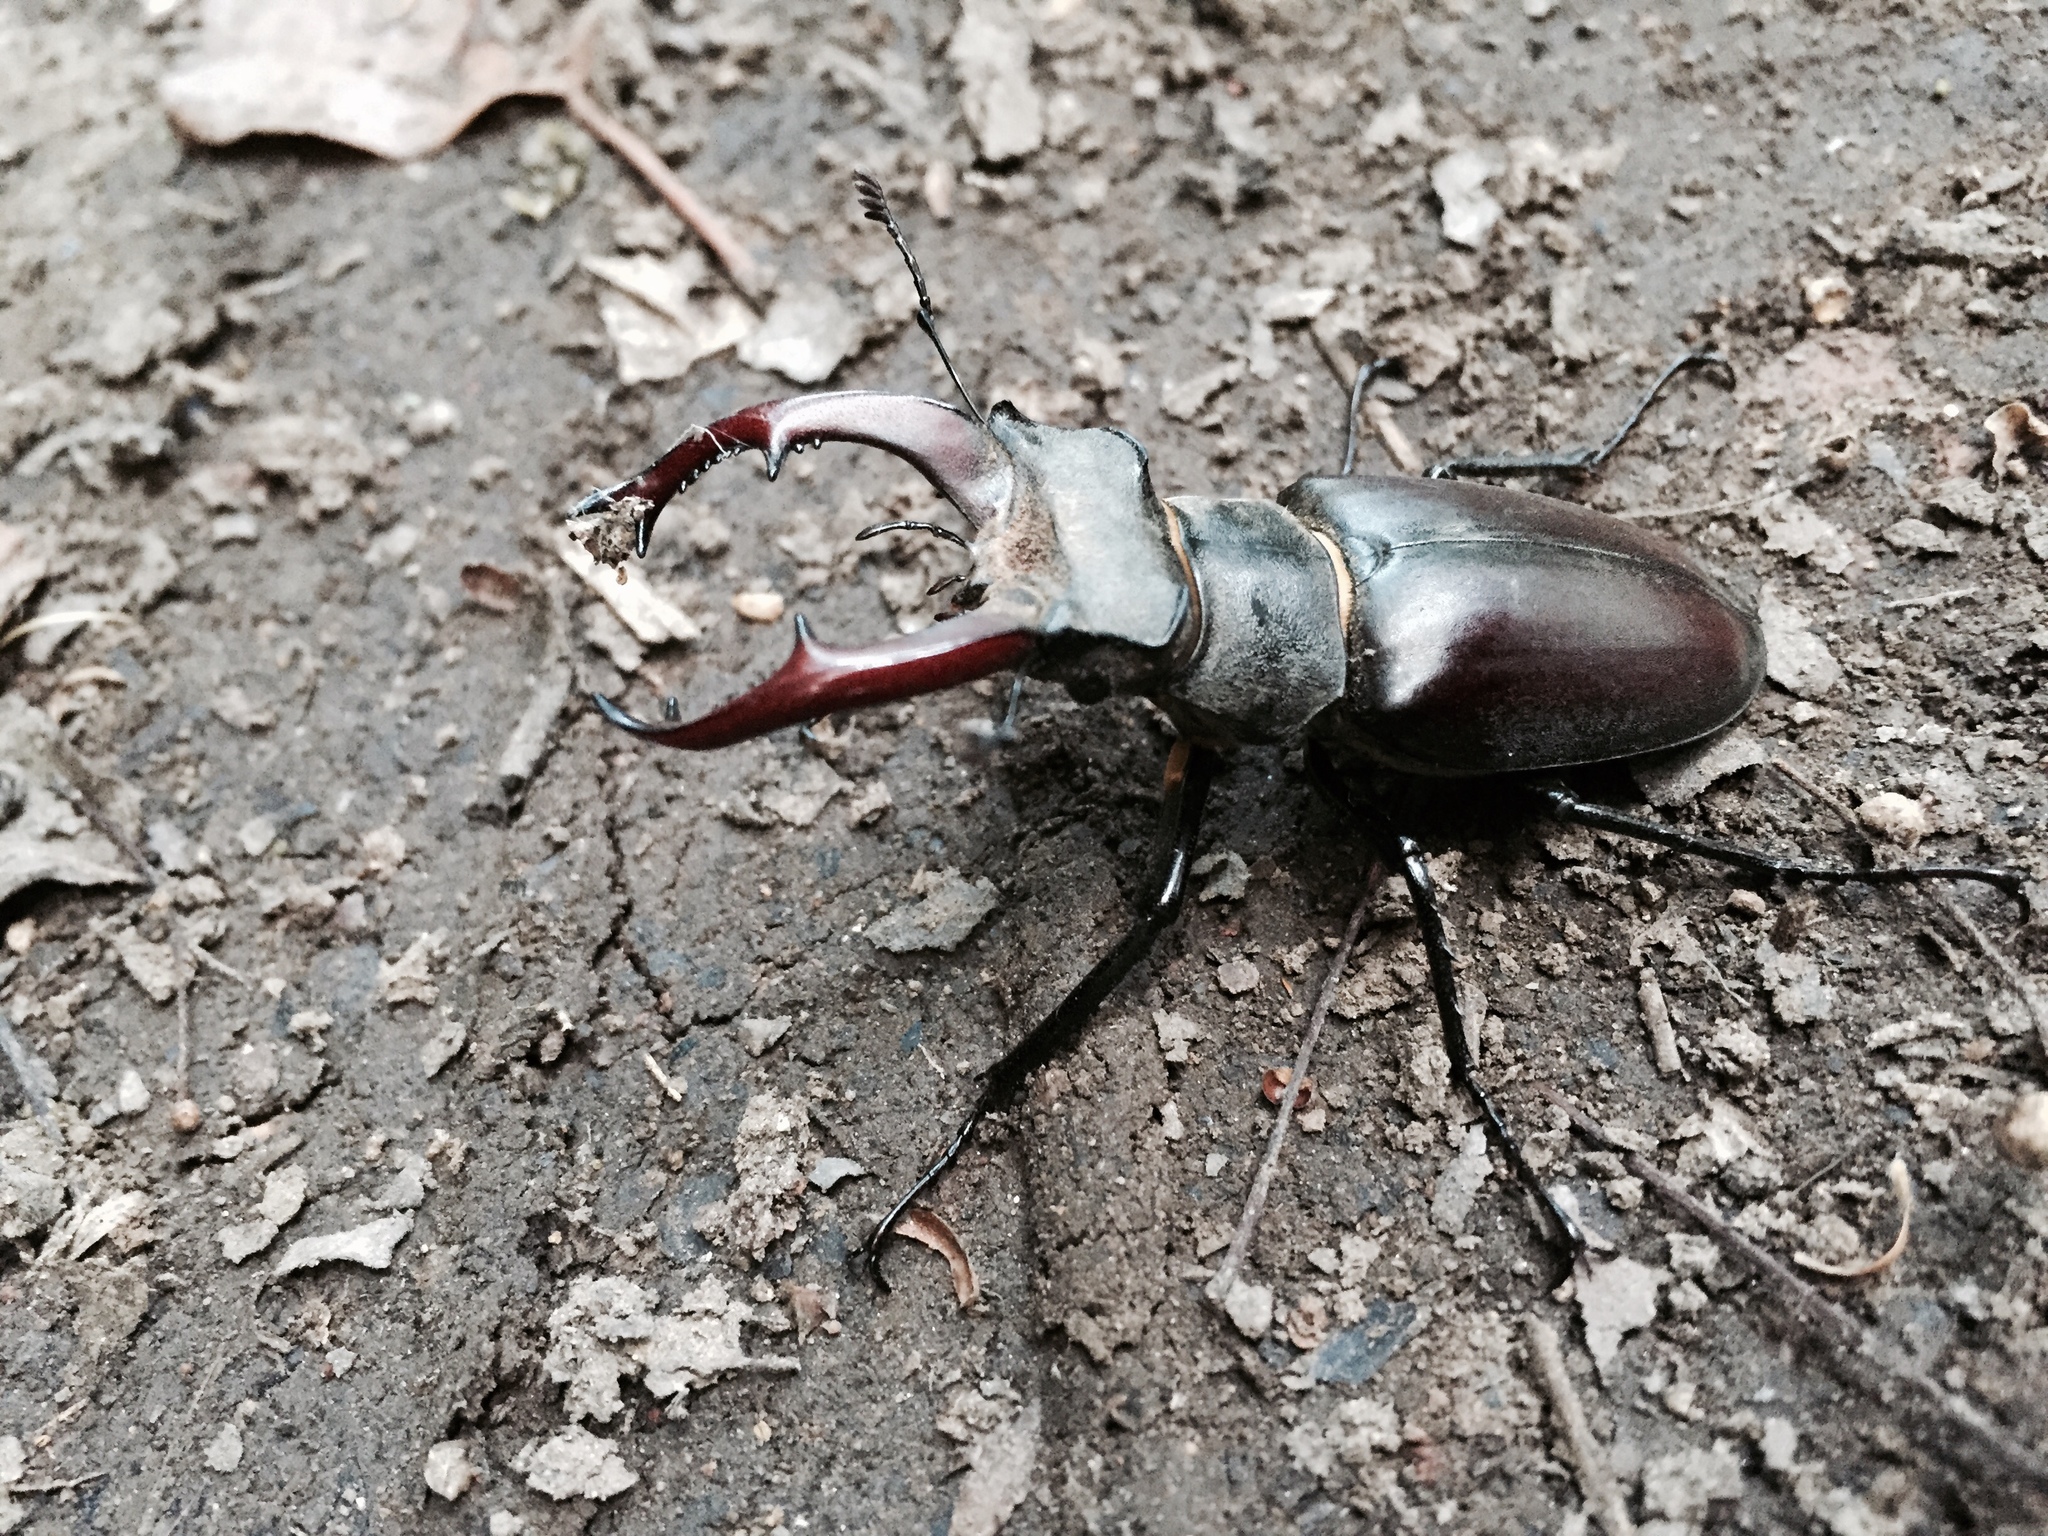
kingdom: Animalia
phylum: Arthropoda
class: Insecta
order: Coleoptera
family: Lucanidae
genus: Lucanus
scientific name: Lucanus cervus
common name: Stag beetle
